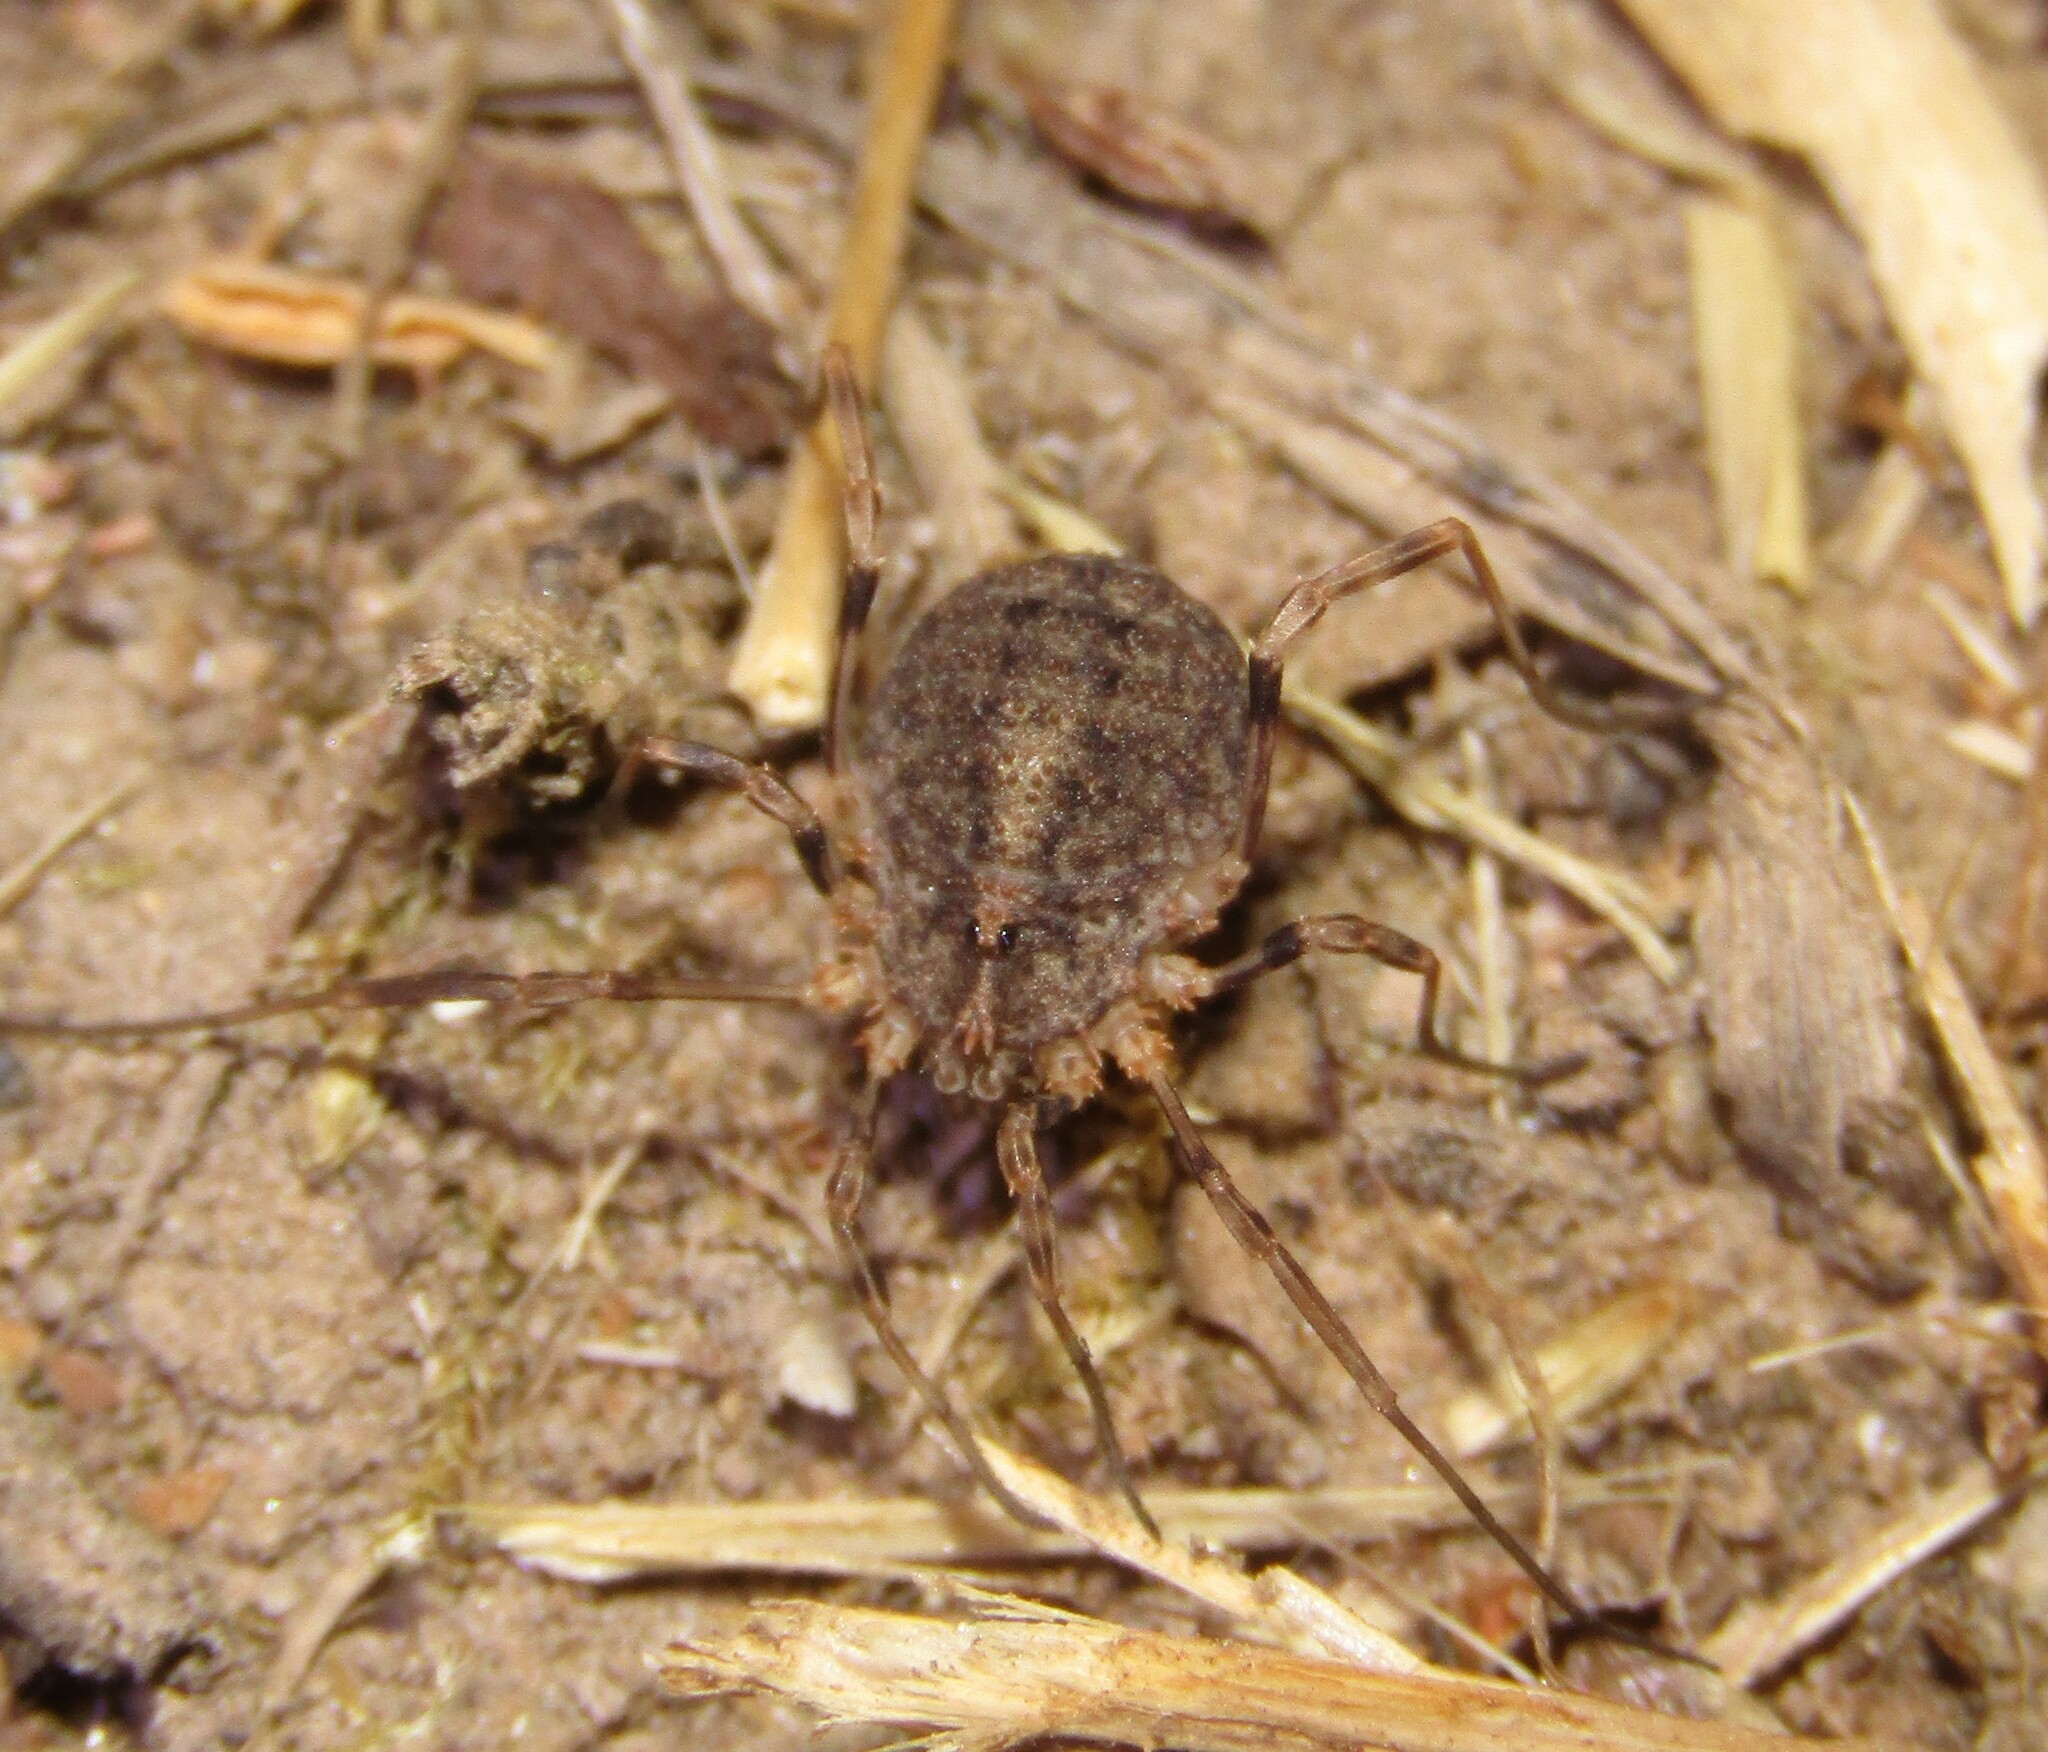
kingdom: Animalia
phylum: Arthropoda
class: Arachnida
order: Opiliones
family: Phalangiidae
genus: Odiellus
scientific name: Odiellus lendlii
